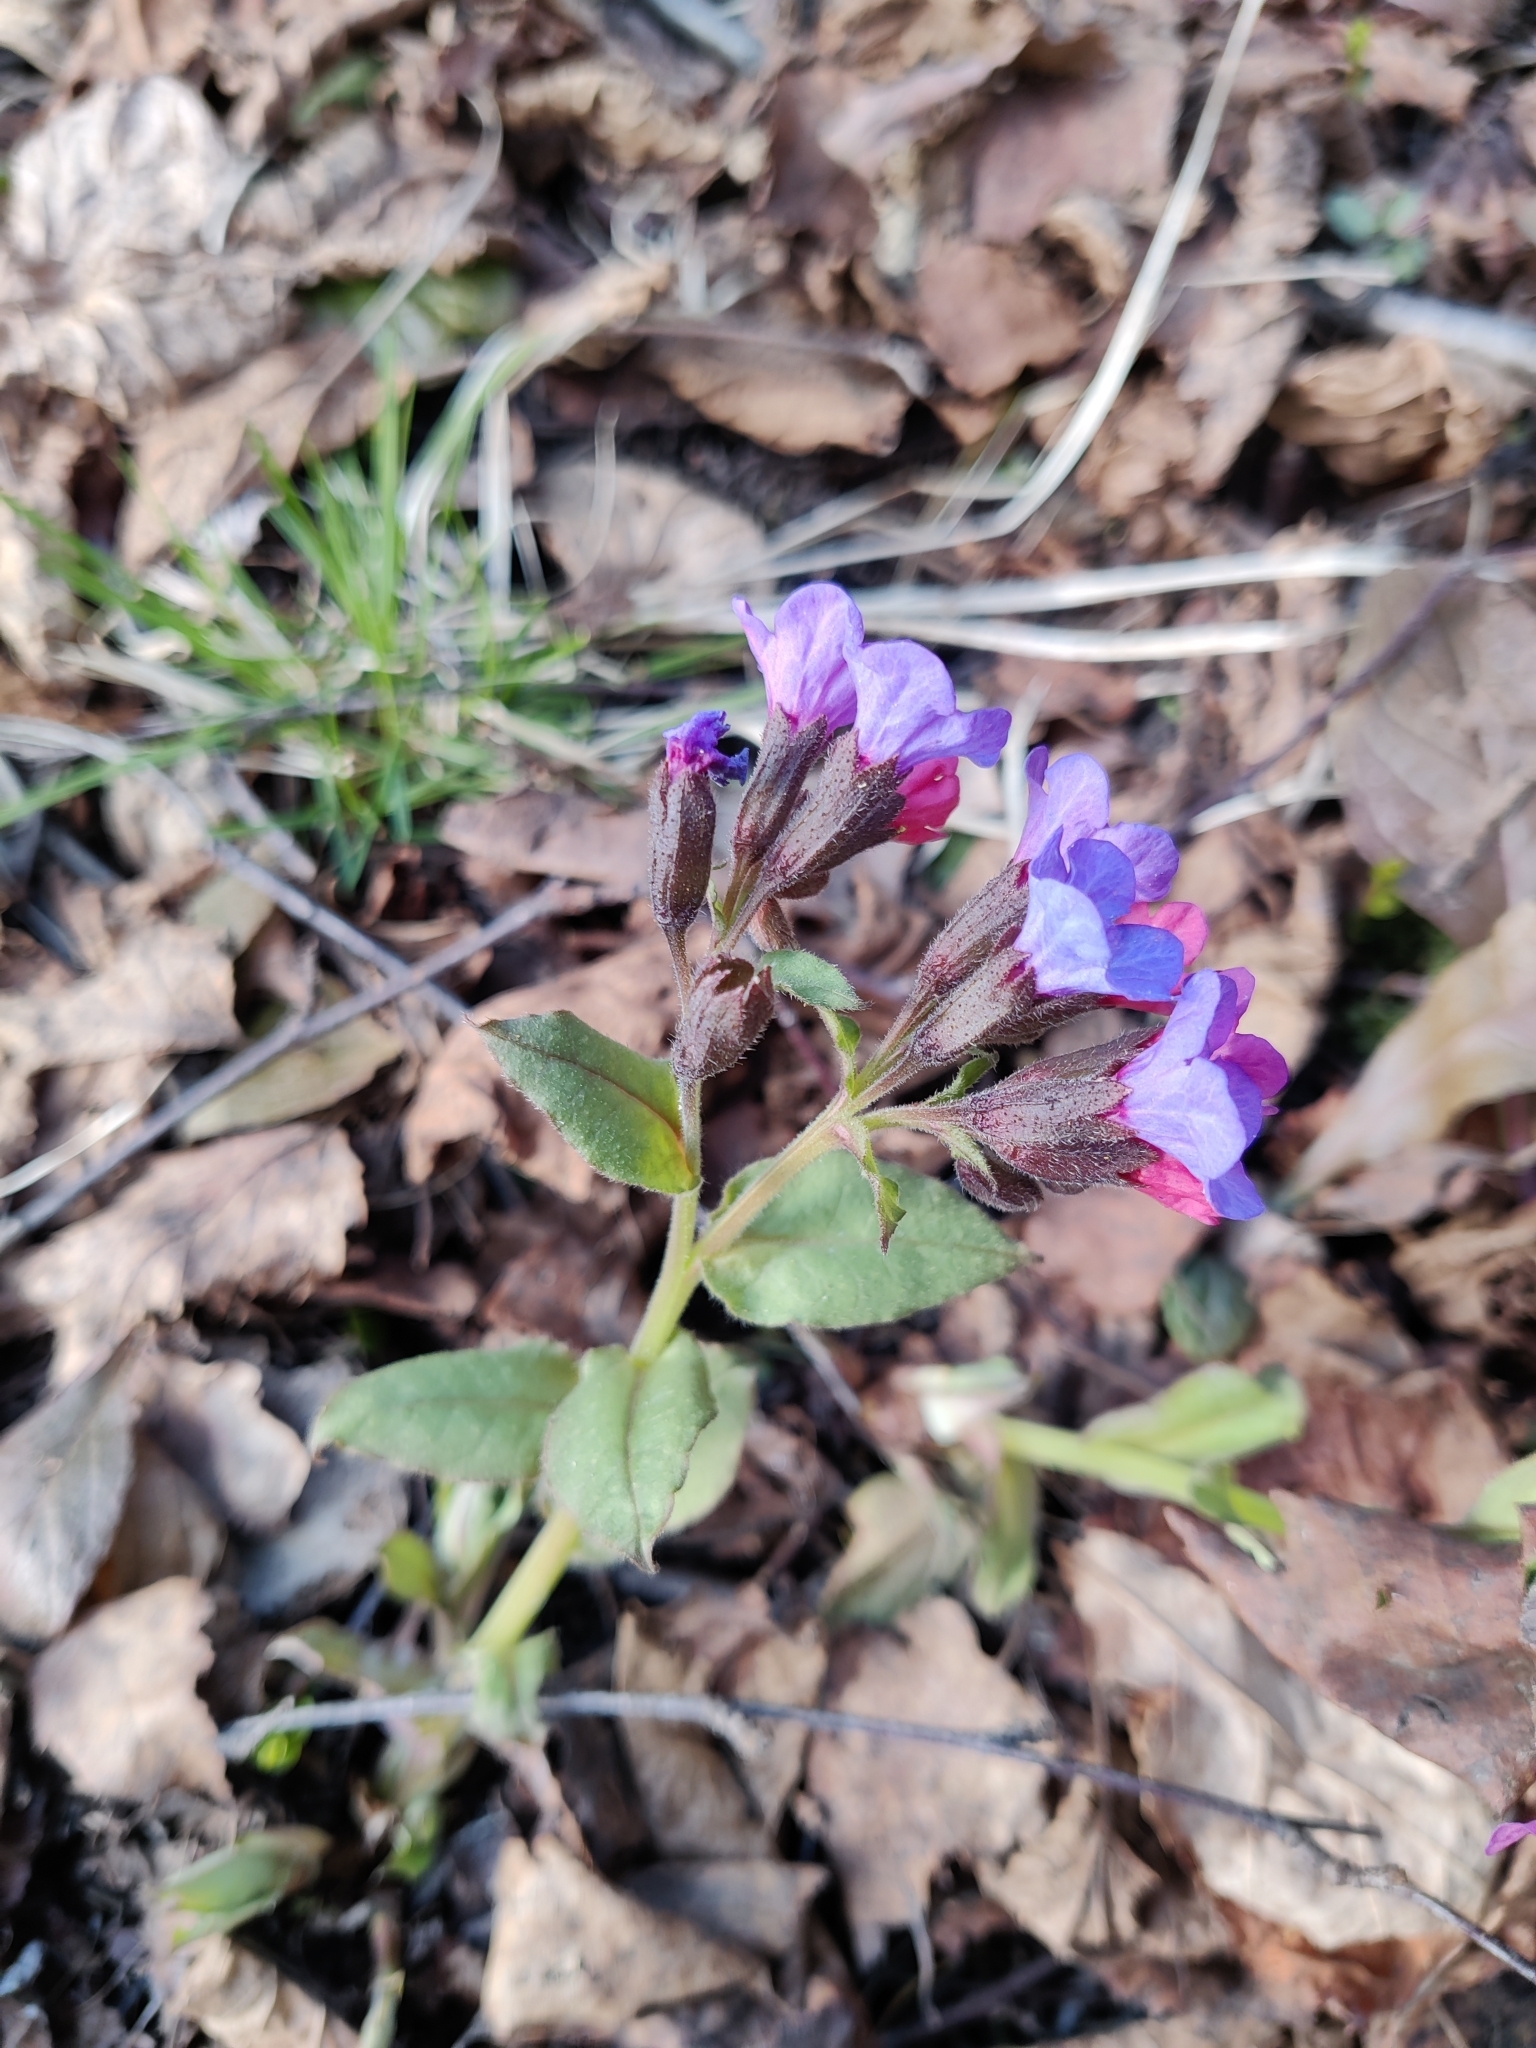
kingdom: Plantae
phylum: Tracheophyta
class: Magnoliopsida
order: Boraginales
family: Boraginaceae
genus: Pulmonaria
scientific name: Pulmonaria obscura
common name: Suffolk lungwort
